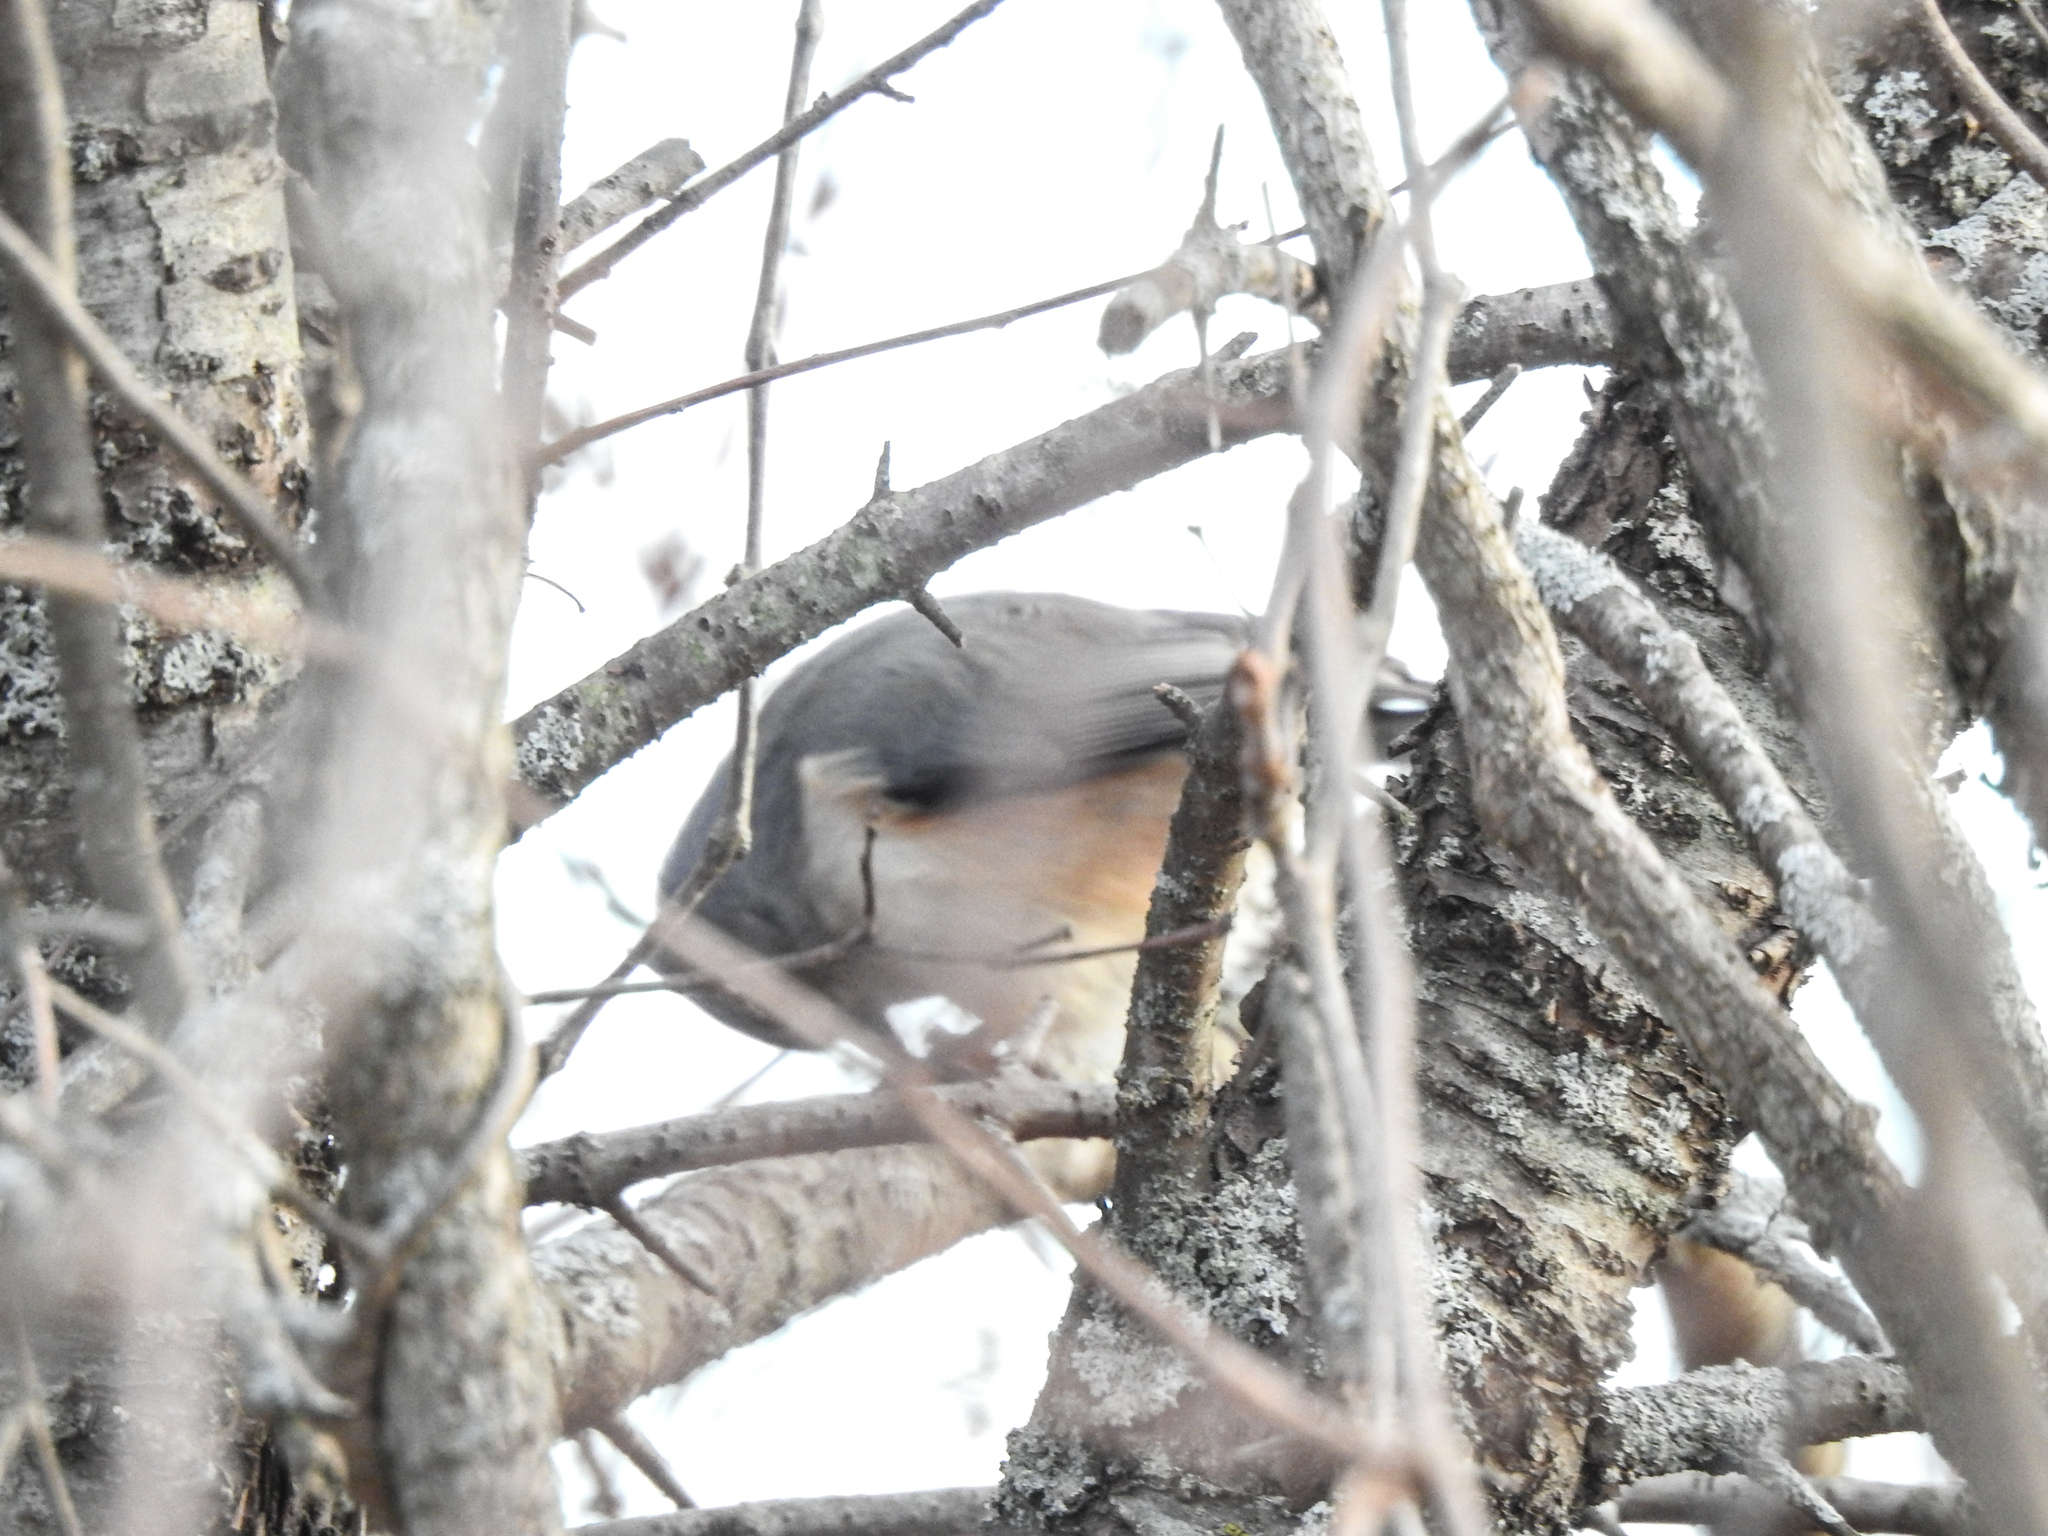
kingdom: Animalia
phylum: Chordata
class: Aves
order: Passeriformes
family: Paridae
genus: Baeolophus
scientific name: Baeolophus bicolor
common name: Tufted titmouse
